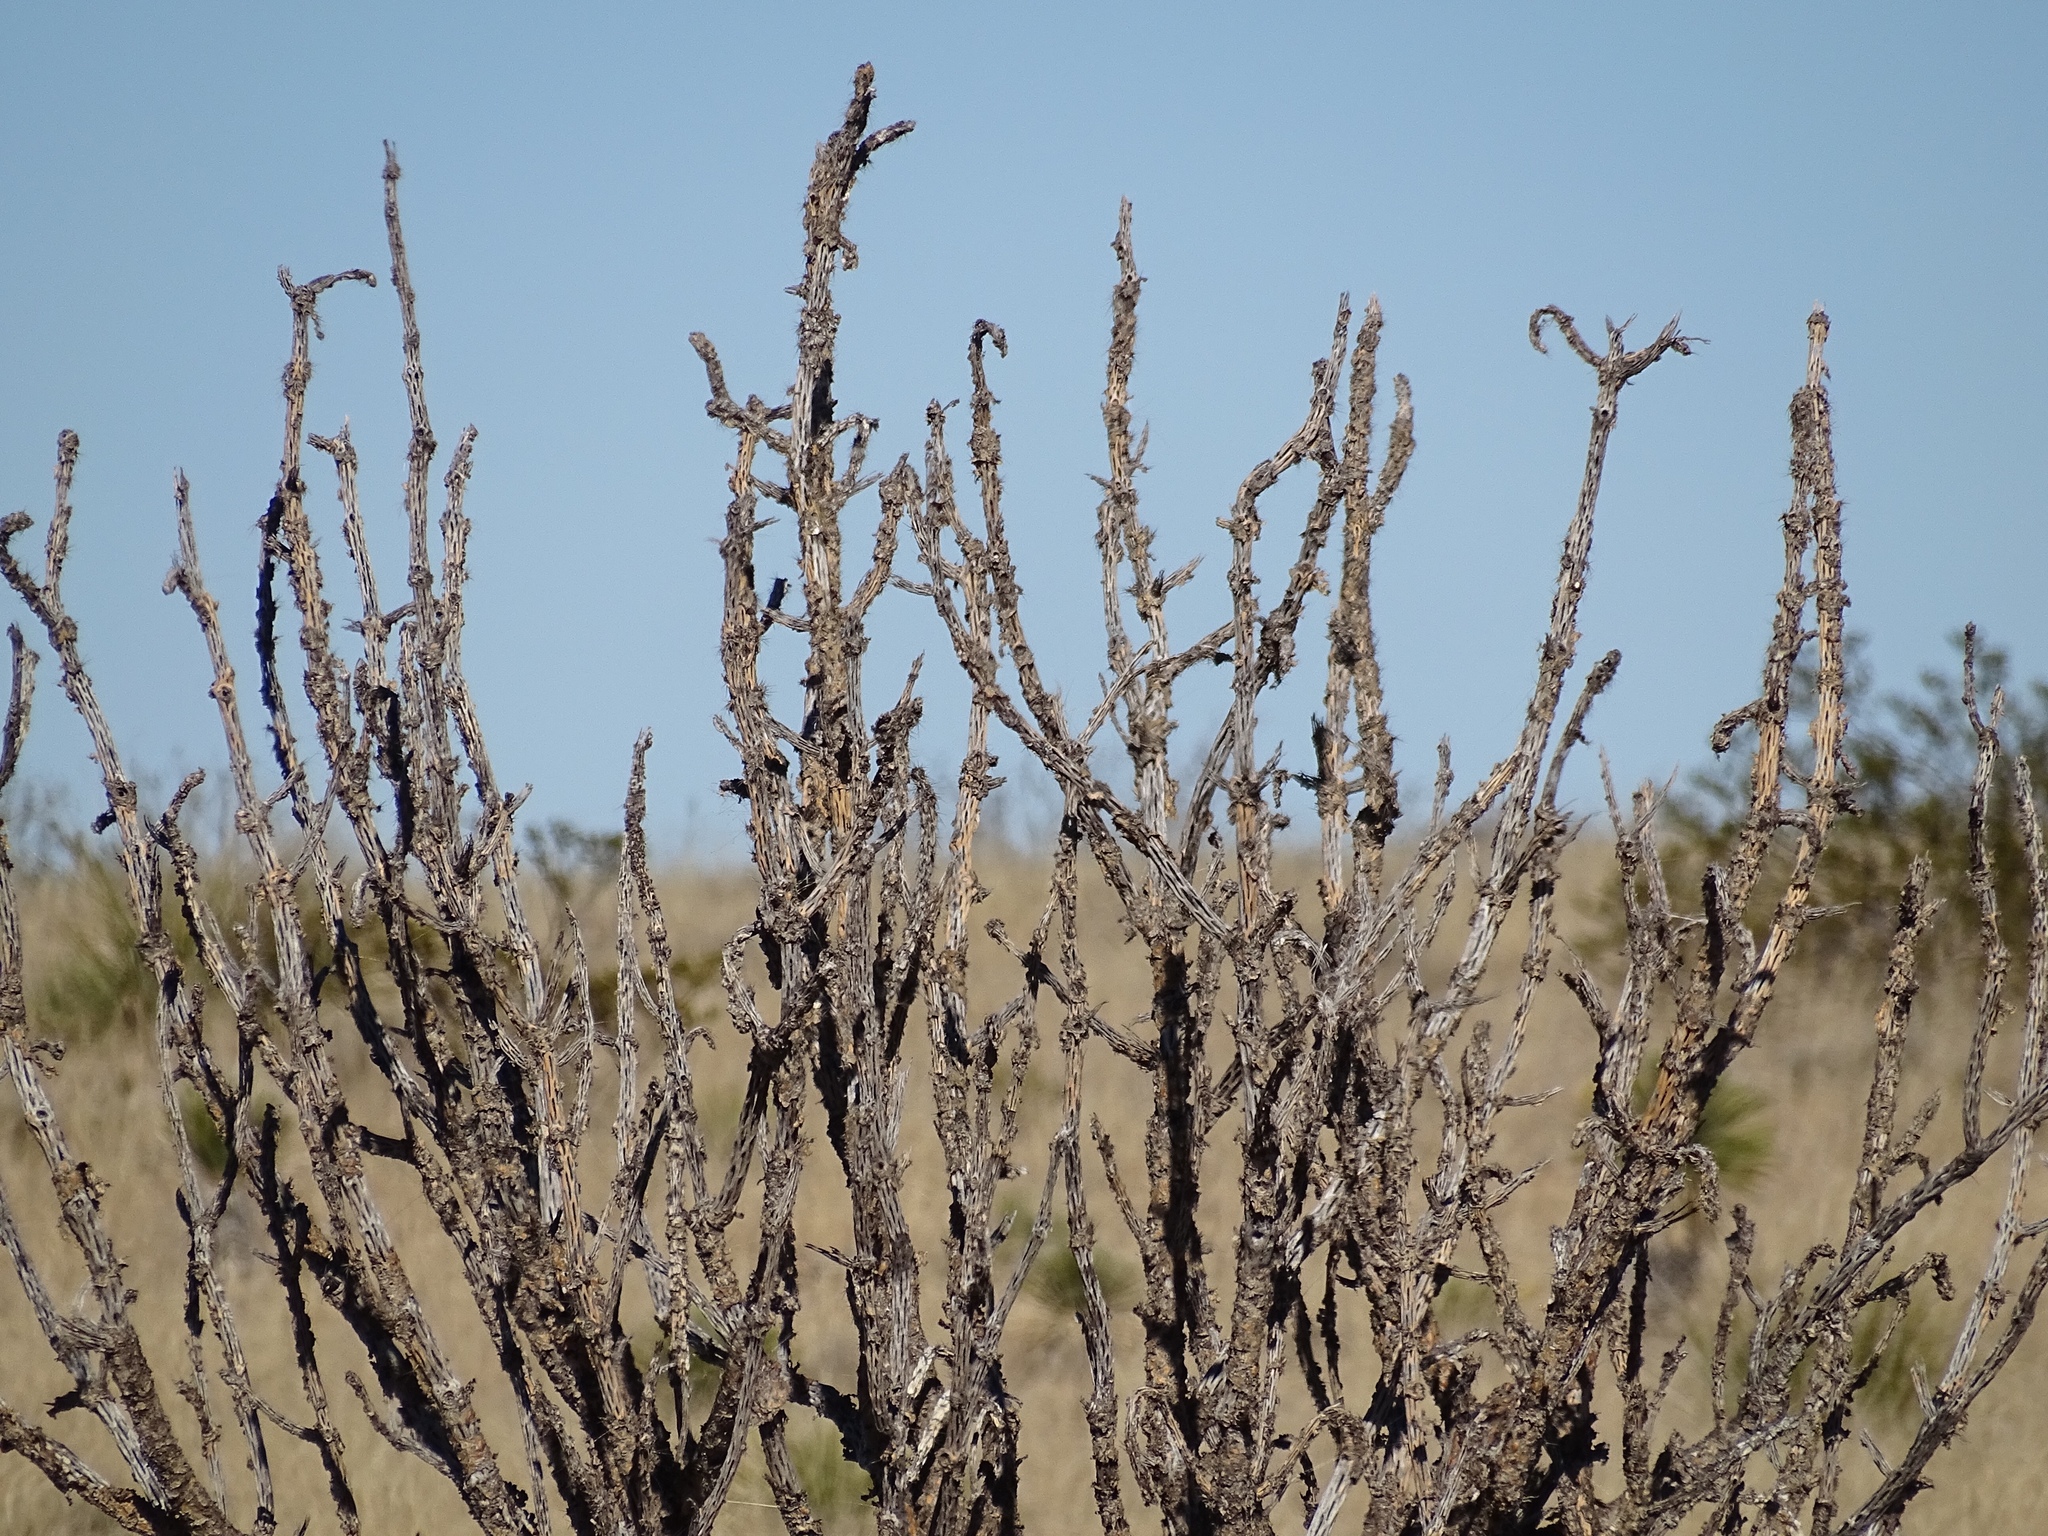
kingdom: Plantae
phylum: Tracheophyta
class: Magnoliopsida
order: Caryophyllales
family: Cactaceae
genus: Cylindropuntia
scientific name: Cylindropuntia imbricata
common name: Candelabrum cactus
